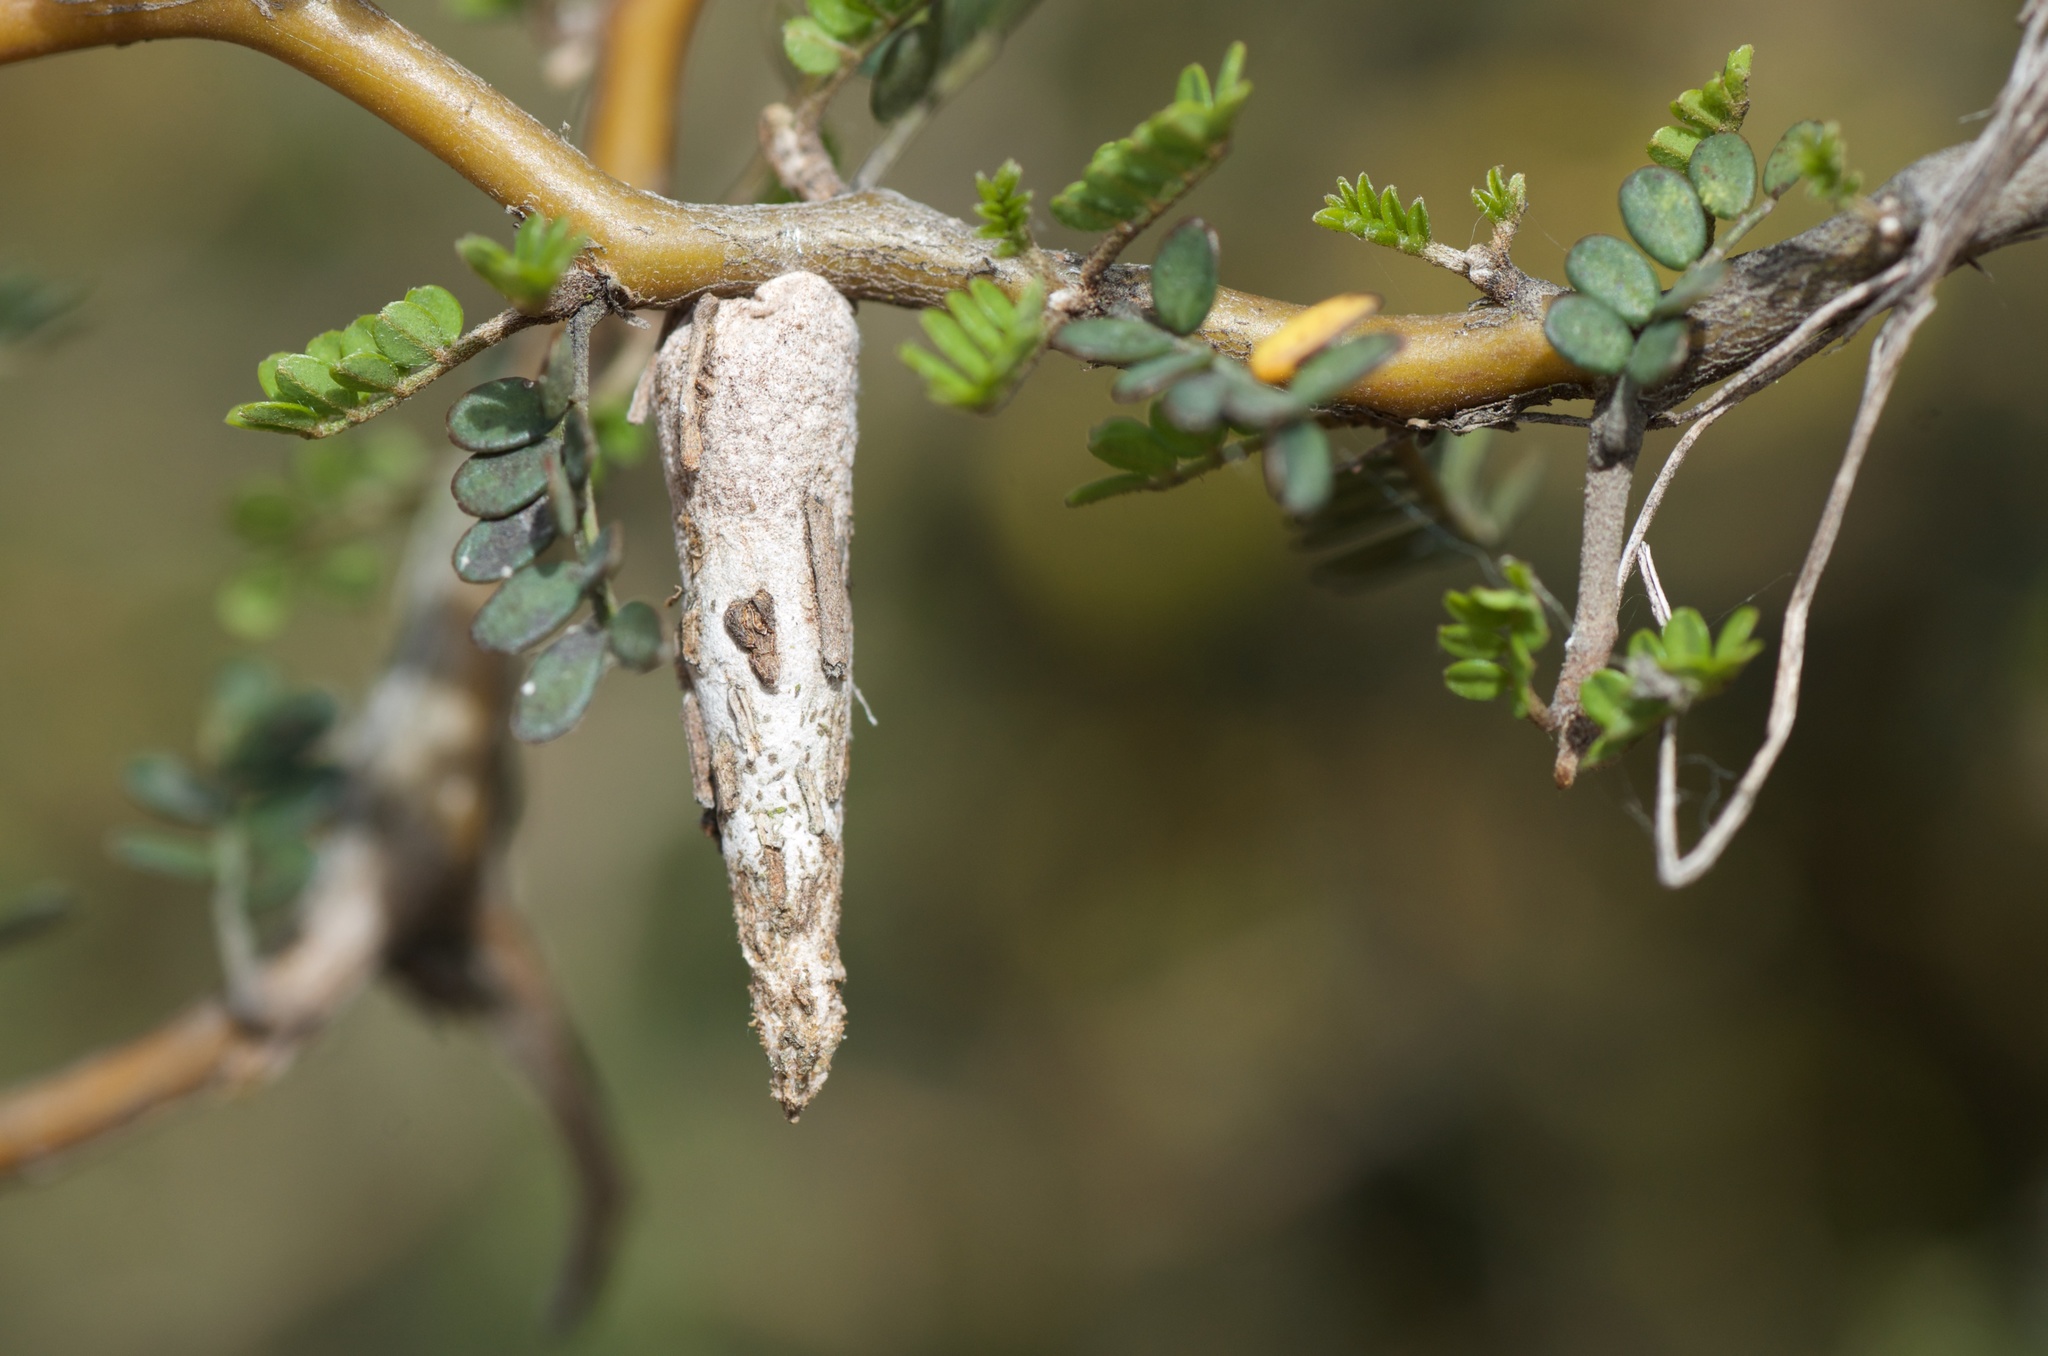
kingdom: Animalia
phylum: Arthropoda
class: Insecta
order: Lepidoptera
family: Psychidae
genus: Liothula
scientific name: Liothula omnivora
